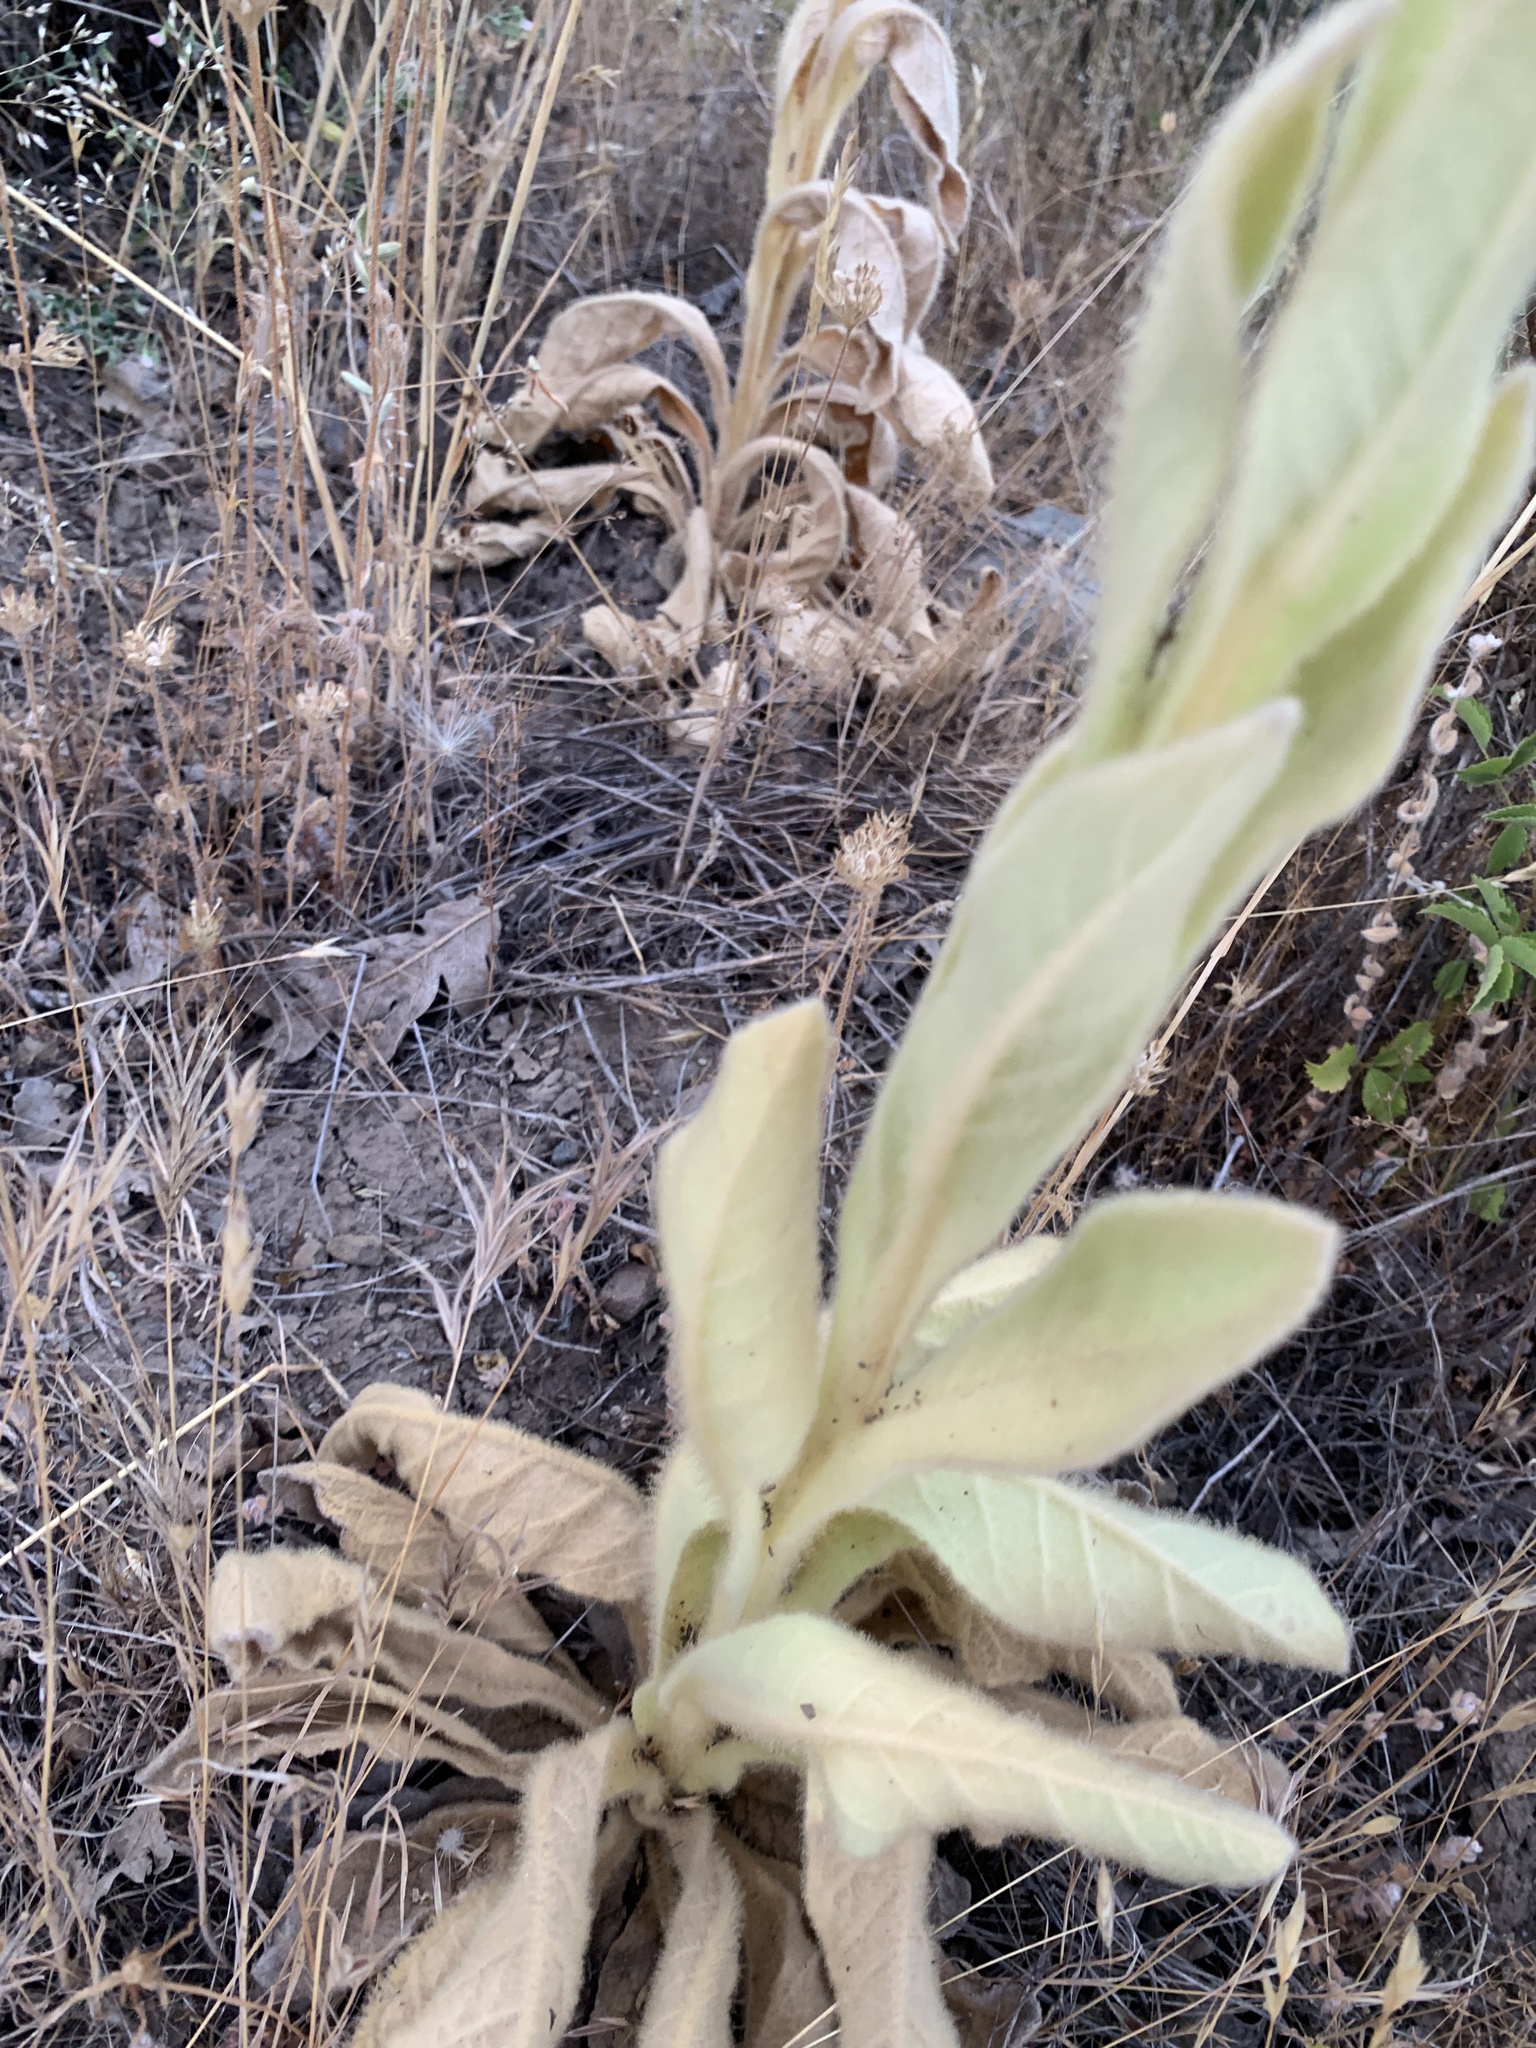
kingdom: Plantae
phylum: Tracheophyta
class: Magnoliopsida
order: Lamiales
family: Scrophulariaceae
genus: Verbascum
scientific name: Verbascum thapsus
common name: Common mullein
